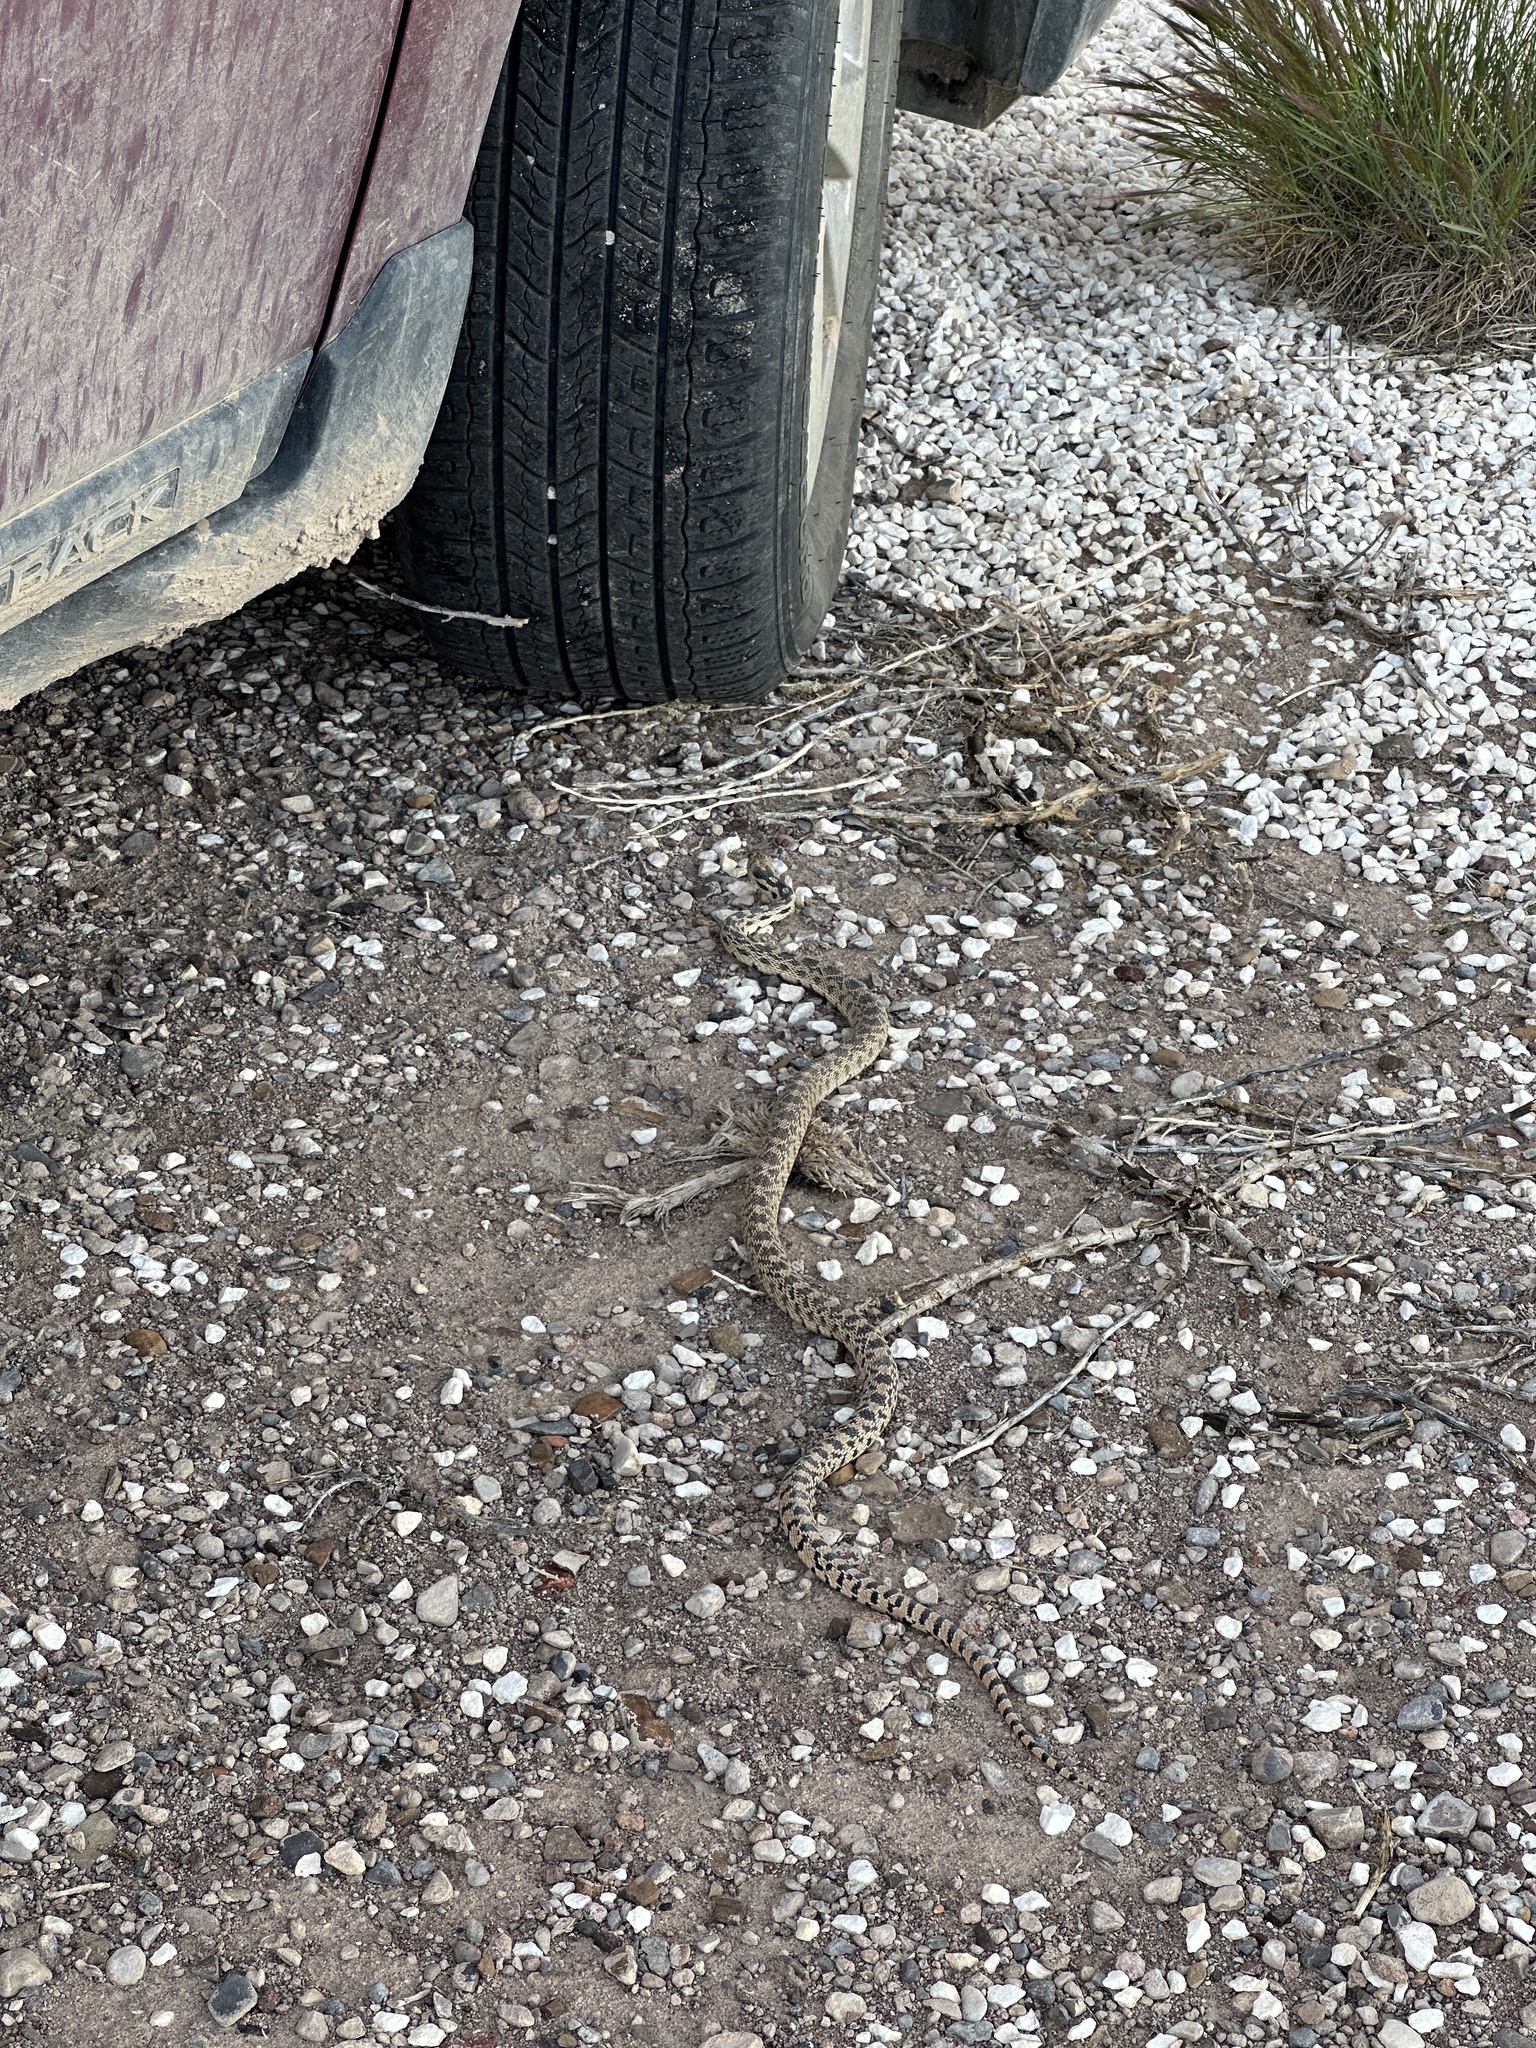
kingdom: Animalia
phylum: Chordata
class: Squamata
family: Colubridae
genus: Pituophis
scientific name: Pituophis catenifer
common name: Gopher snake
